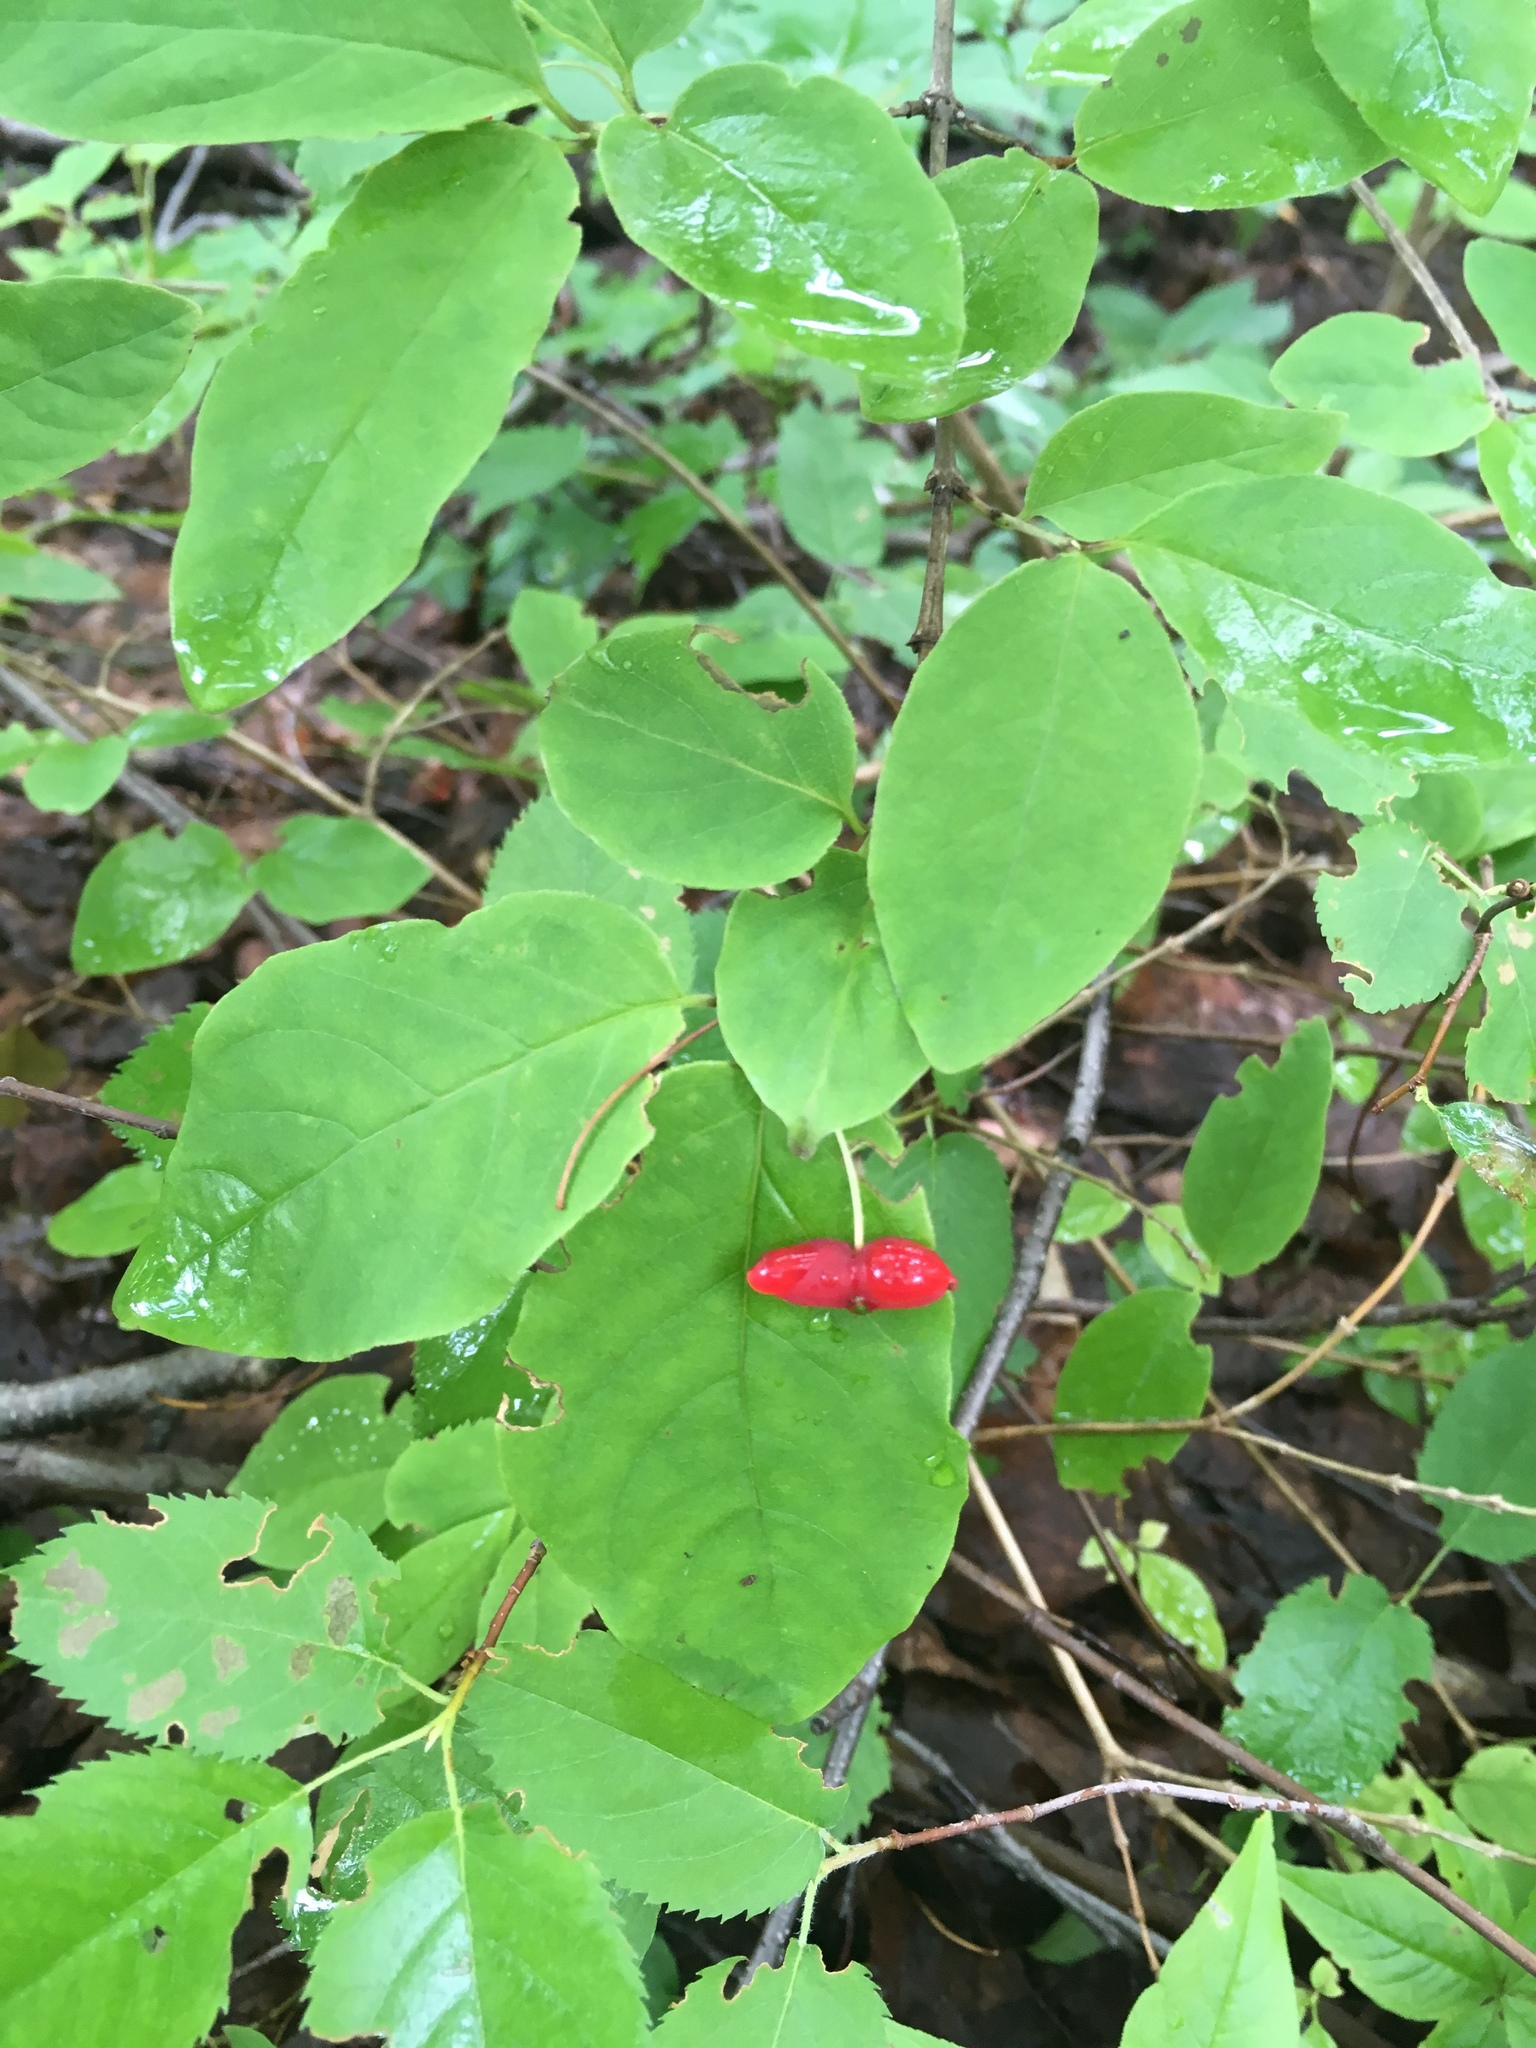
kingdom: Plantae
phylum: Tracheophyta
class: Magnoliopsida
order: Dipsacales
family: Caprifoliaceae
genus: Lonicera
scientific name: Lonicera canadensis
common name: American fly-honeysuckle
